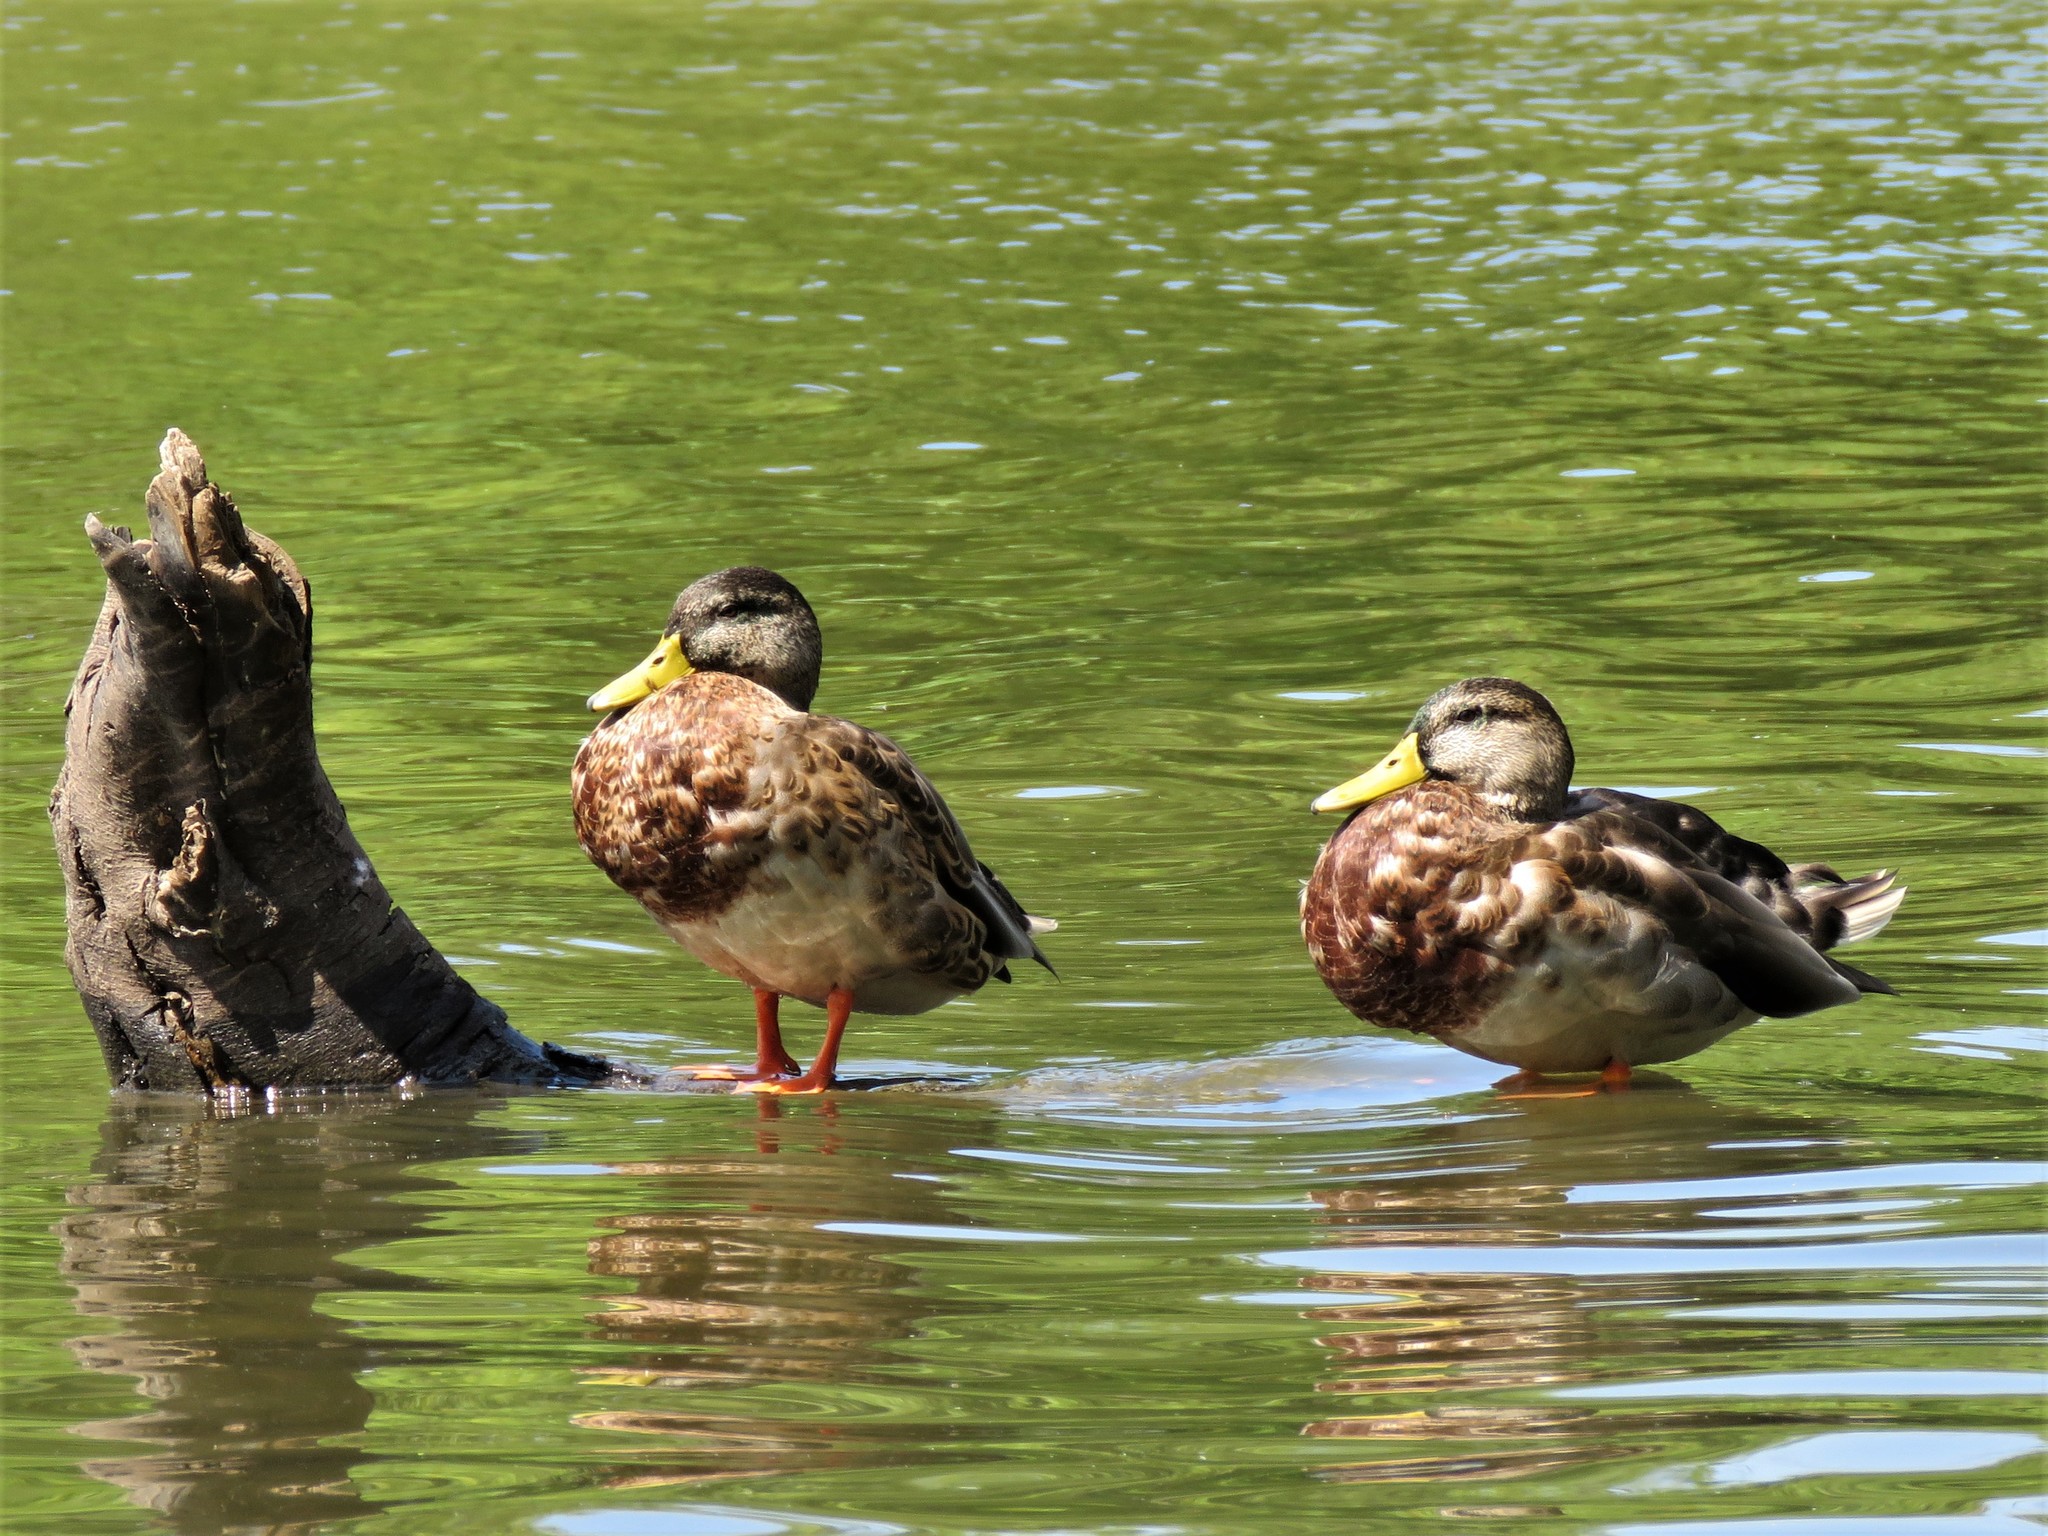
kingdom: Animalia
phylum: Chordata
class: Aves
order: Anseriformes
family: Anatidae
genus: Anas
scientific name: Anas platyrhynchos
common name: Mallard
